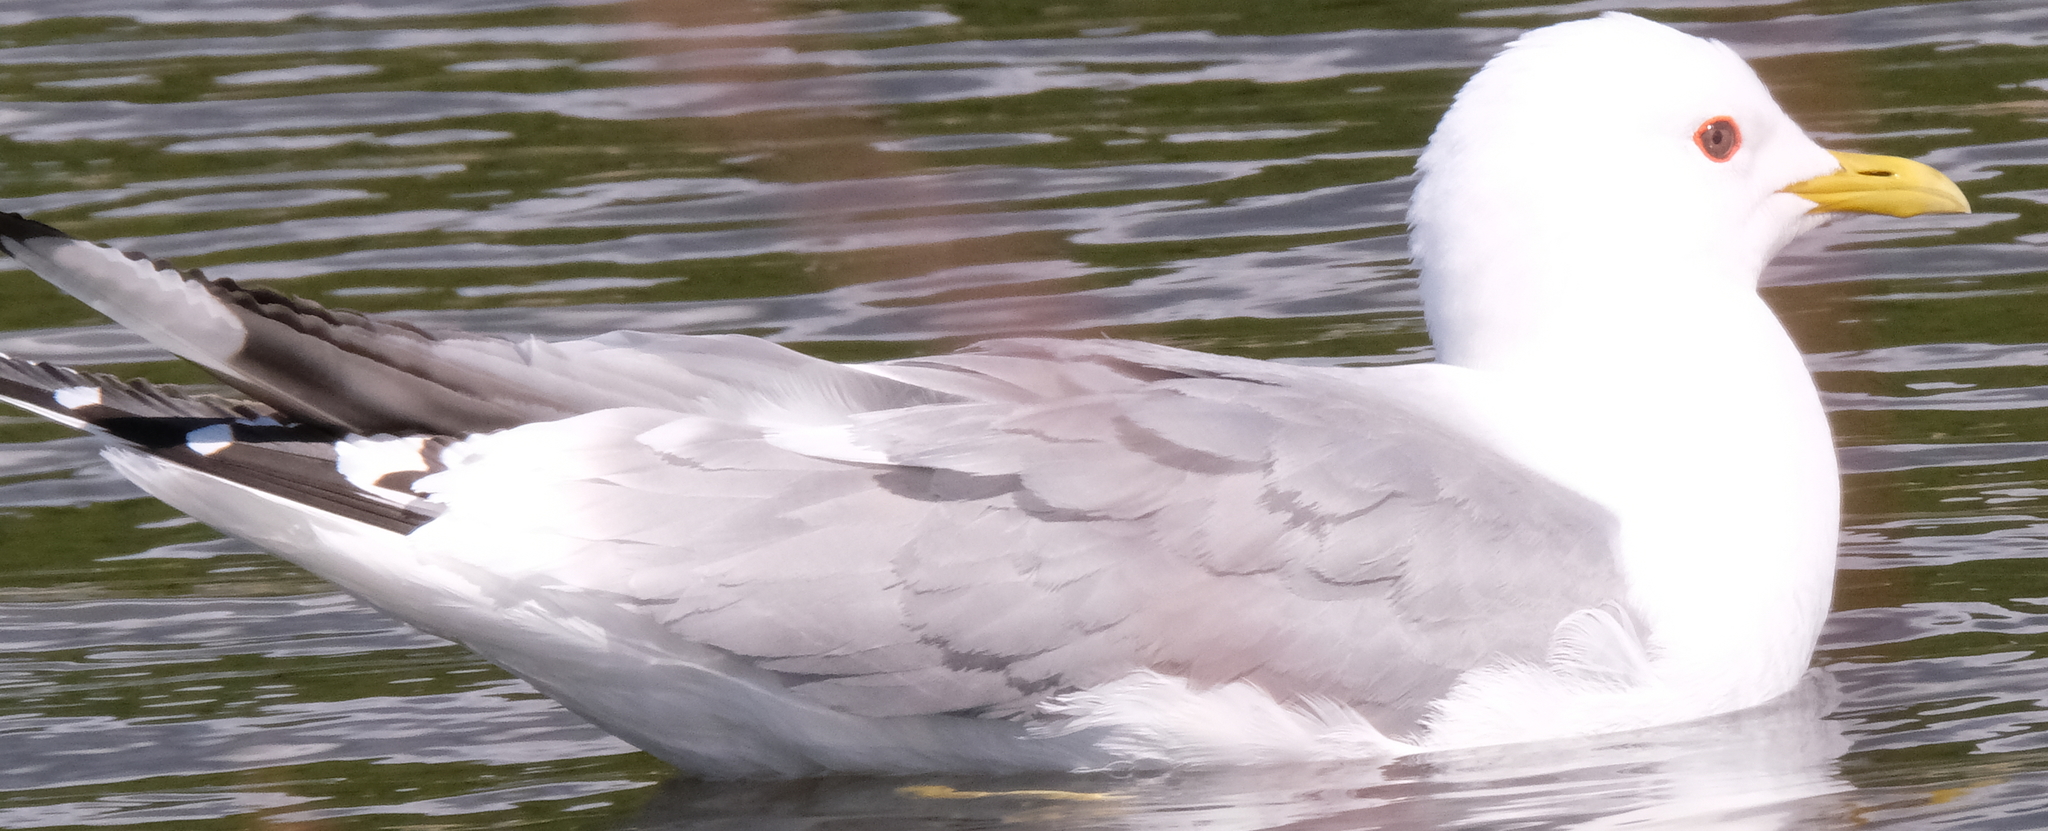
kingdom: Animalia
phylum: Chordata
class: Aves
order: Charadriiformes
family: Laridae
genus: Larus
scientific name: Larus brachyrhynchus
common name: Short-billed gull
